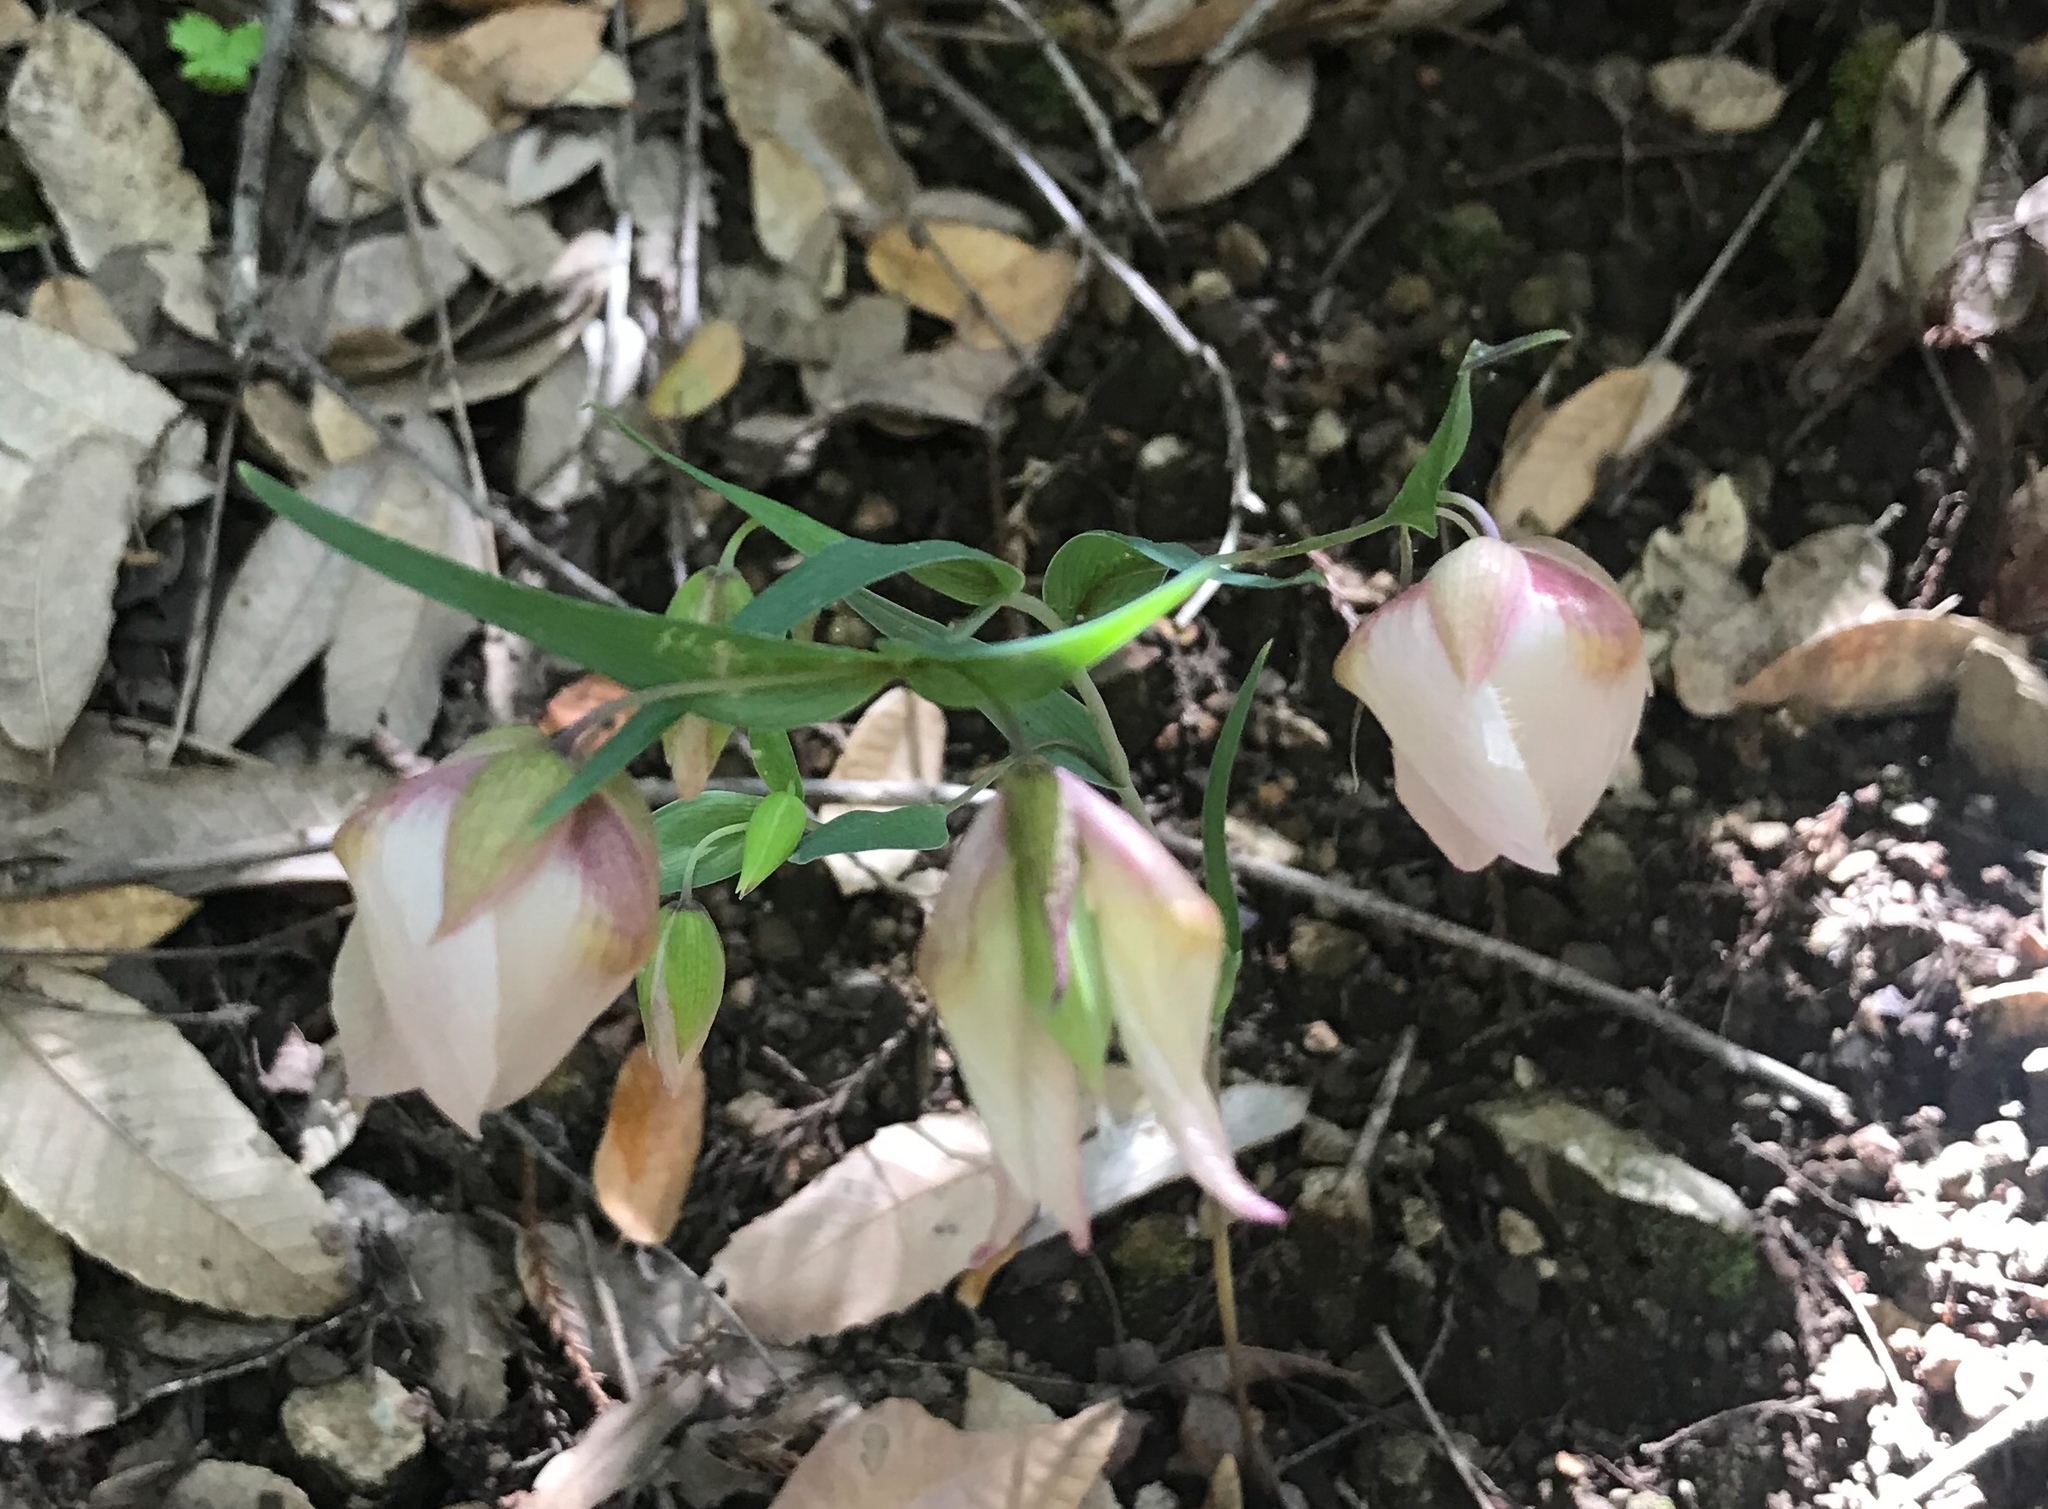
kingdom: Plantae
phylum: Tracheophyta
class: Liliopsida
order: Liliales
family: Liliaceae
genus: Calochortus
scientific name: Calochortus albus
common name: Fairy-lantern
